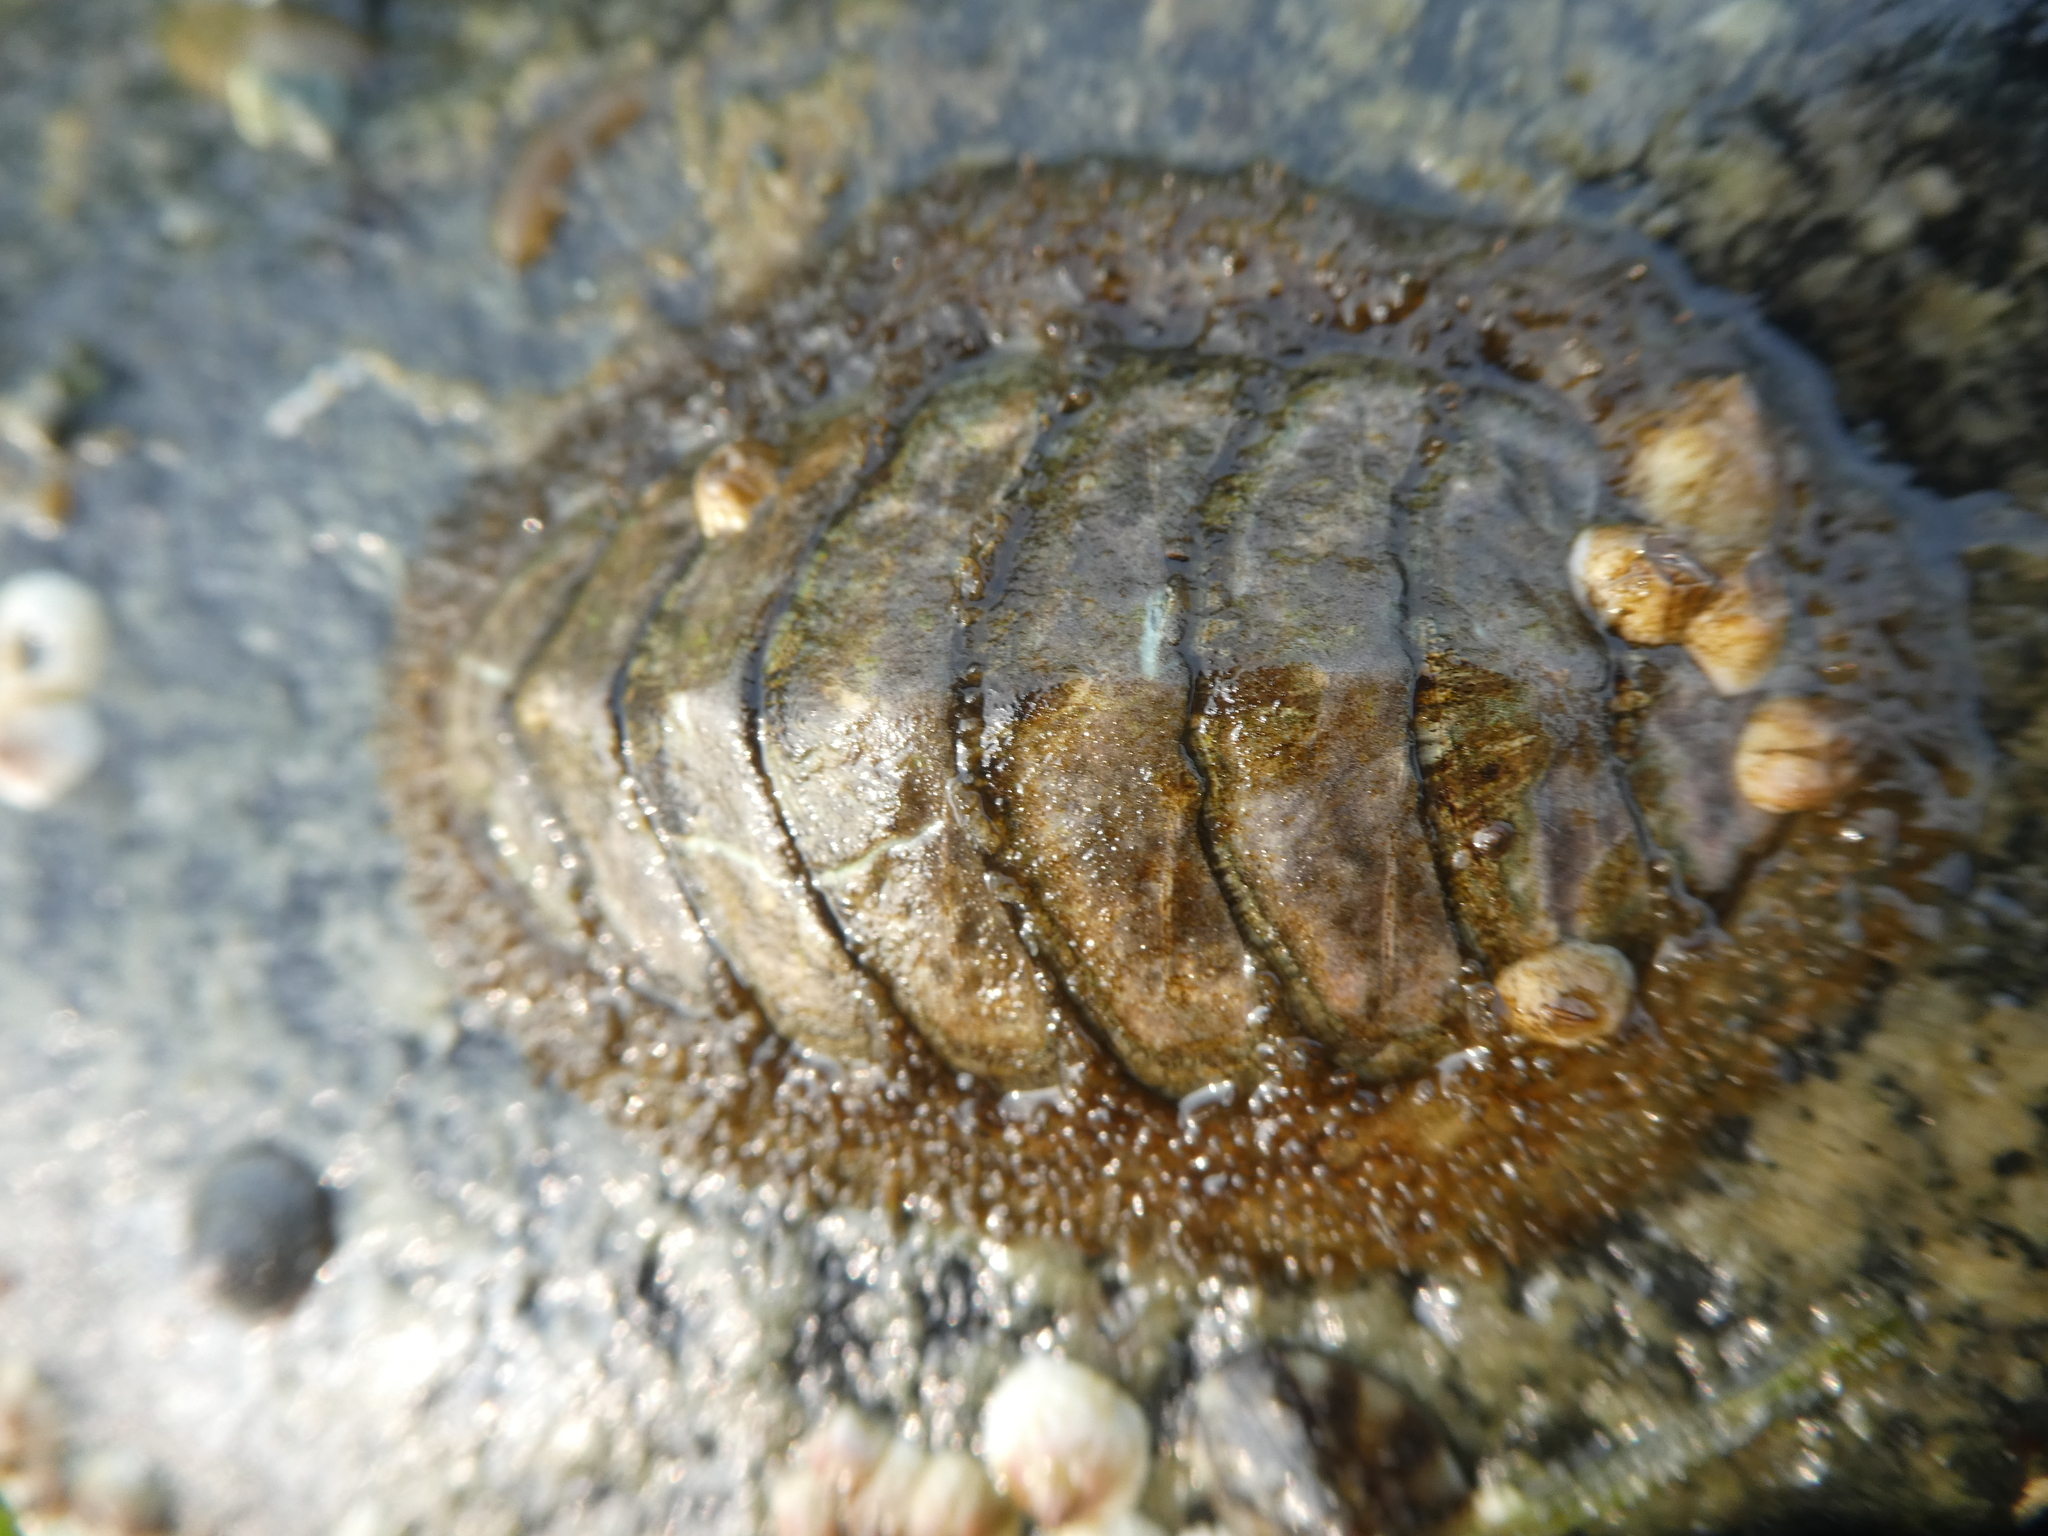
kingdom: Animalia
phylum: Mollusca
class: Polyplacophora
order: Chitonida
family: Mopaliidae
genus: Mopalia
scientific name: Mopalia lignosa
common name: Woody chiton
